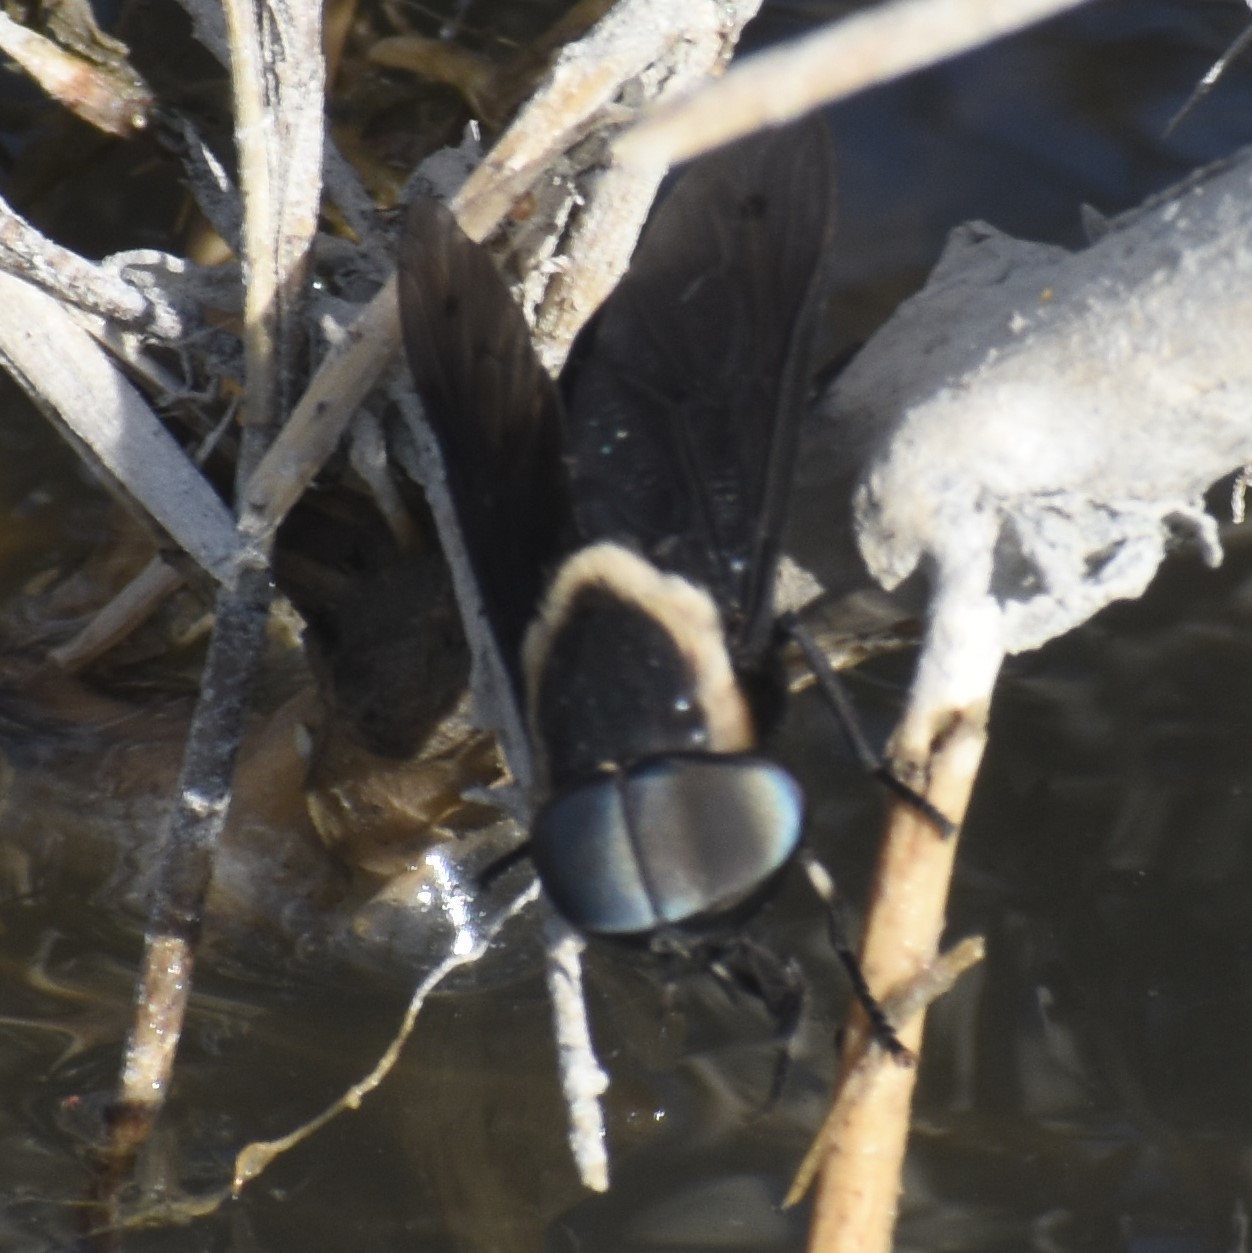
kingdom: Animalia
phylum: Arthropoda
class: Insecta
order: Diptera
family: Tabanidae
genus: Tabanus
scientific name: Tabanus punctifer
